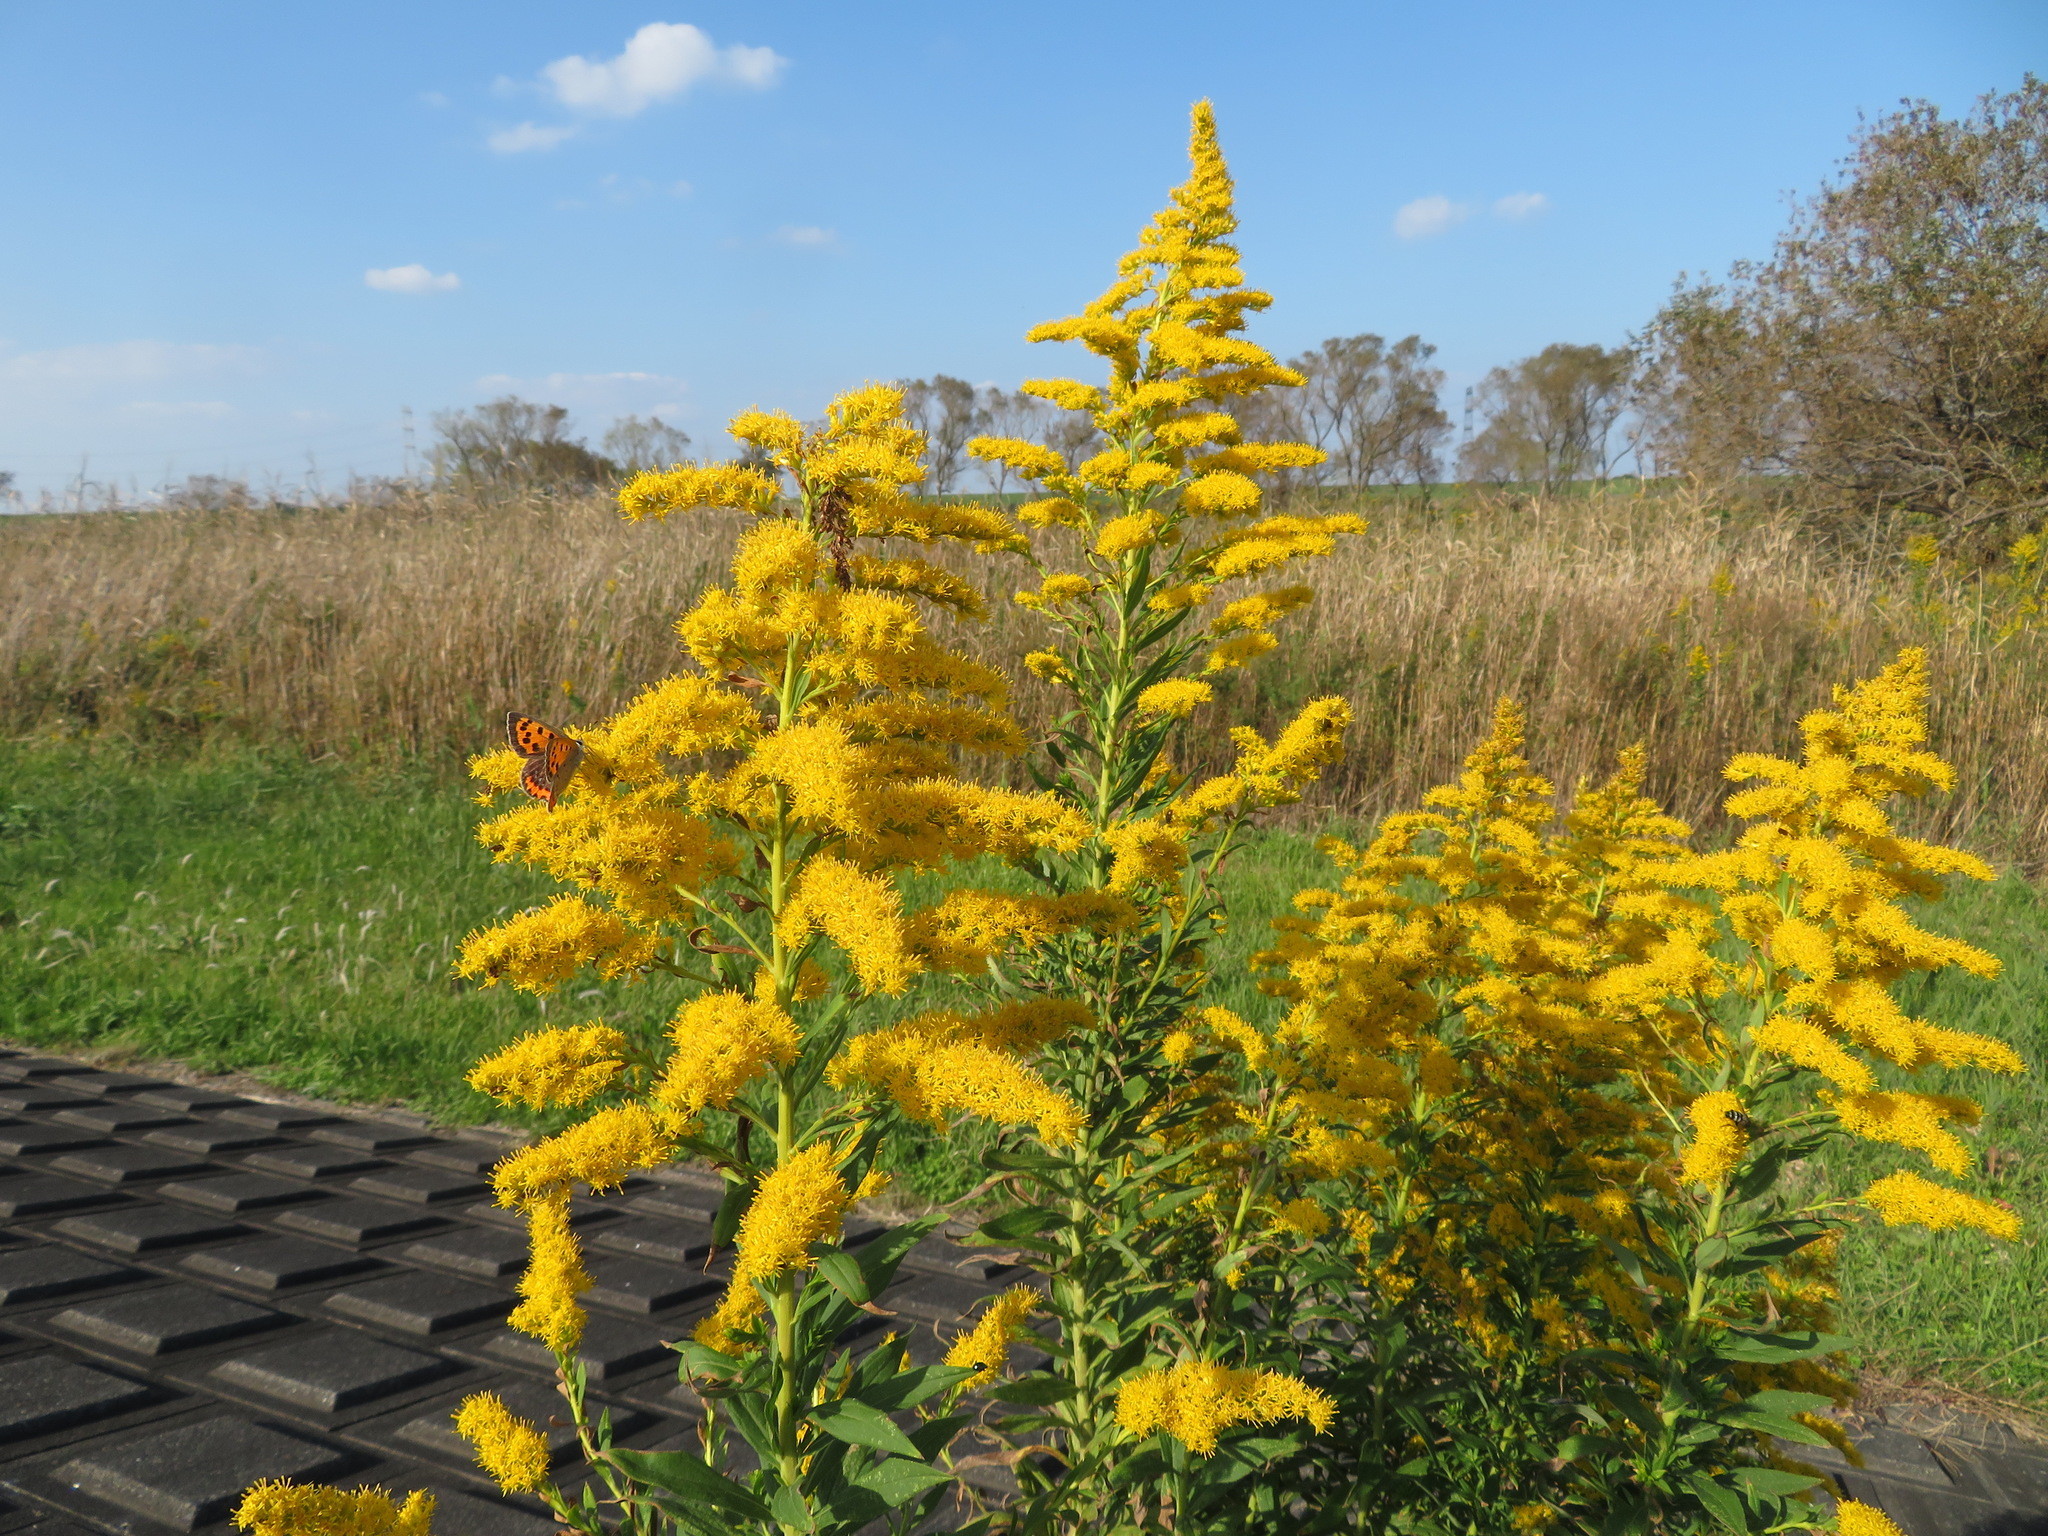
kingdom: Plantae
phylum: Tracheophyta
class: Magnoliopsida
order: Asterales
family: Asteraceae
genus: Solidago
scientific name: Solidago altissima
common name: Late goldenrod
